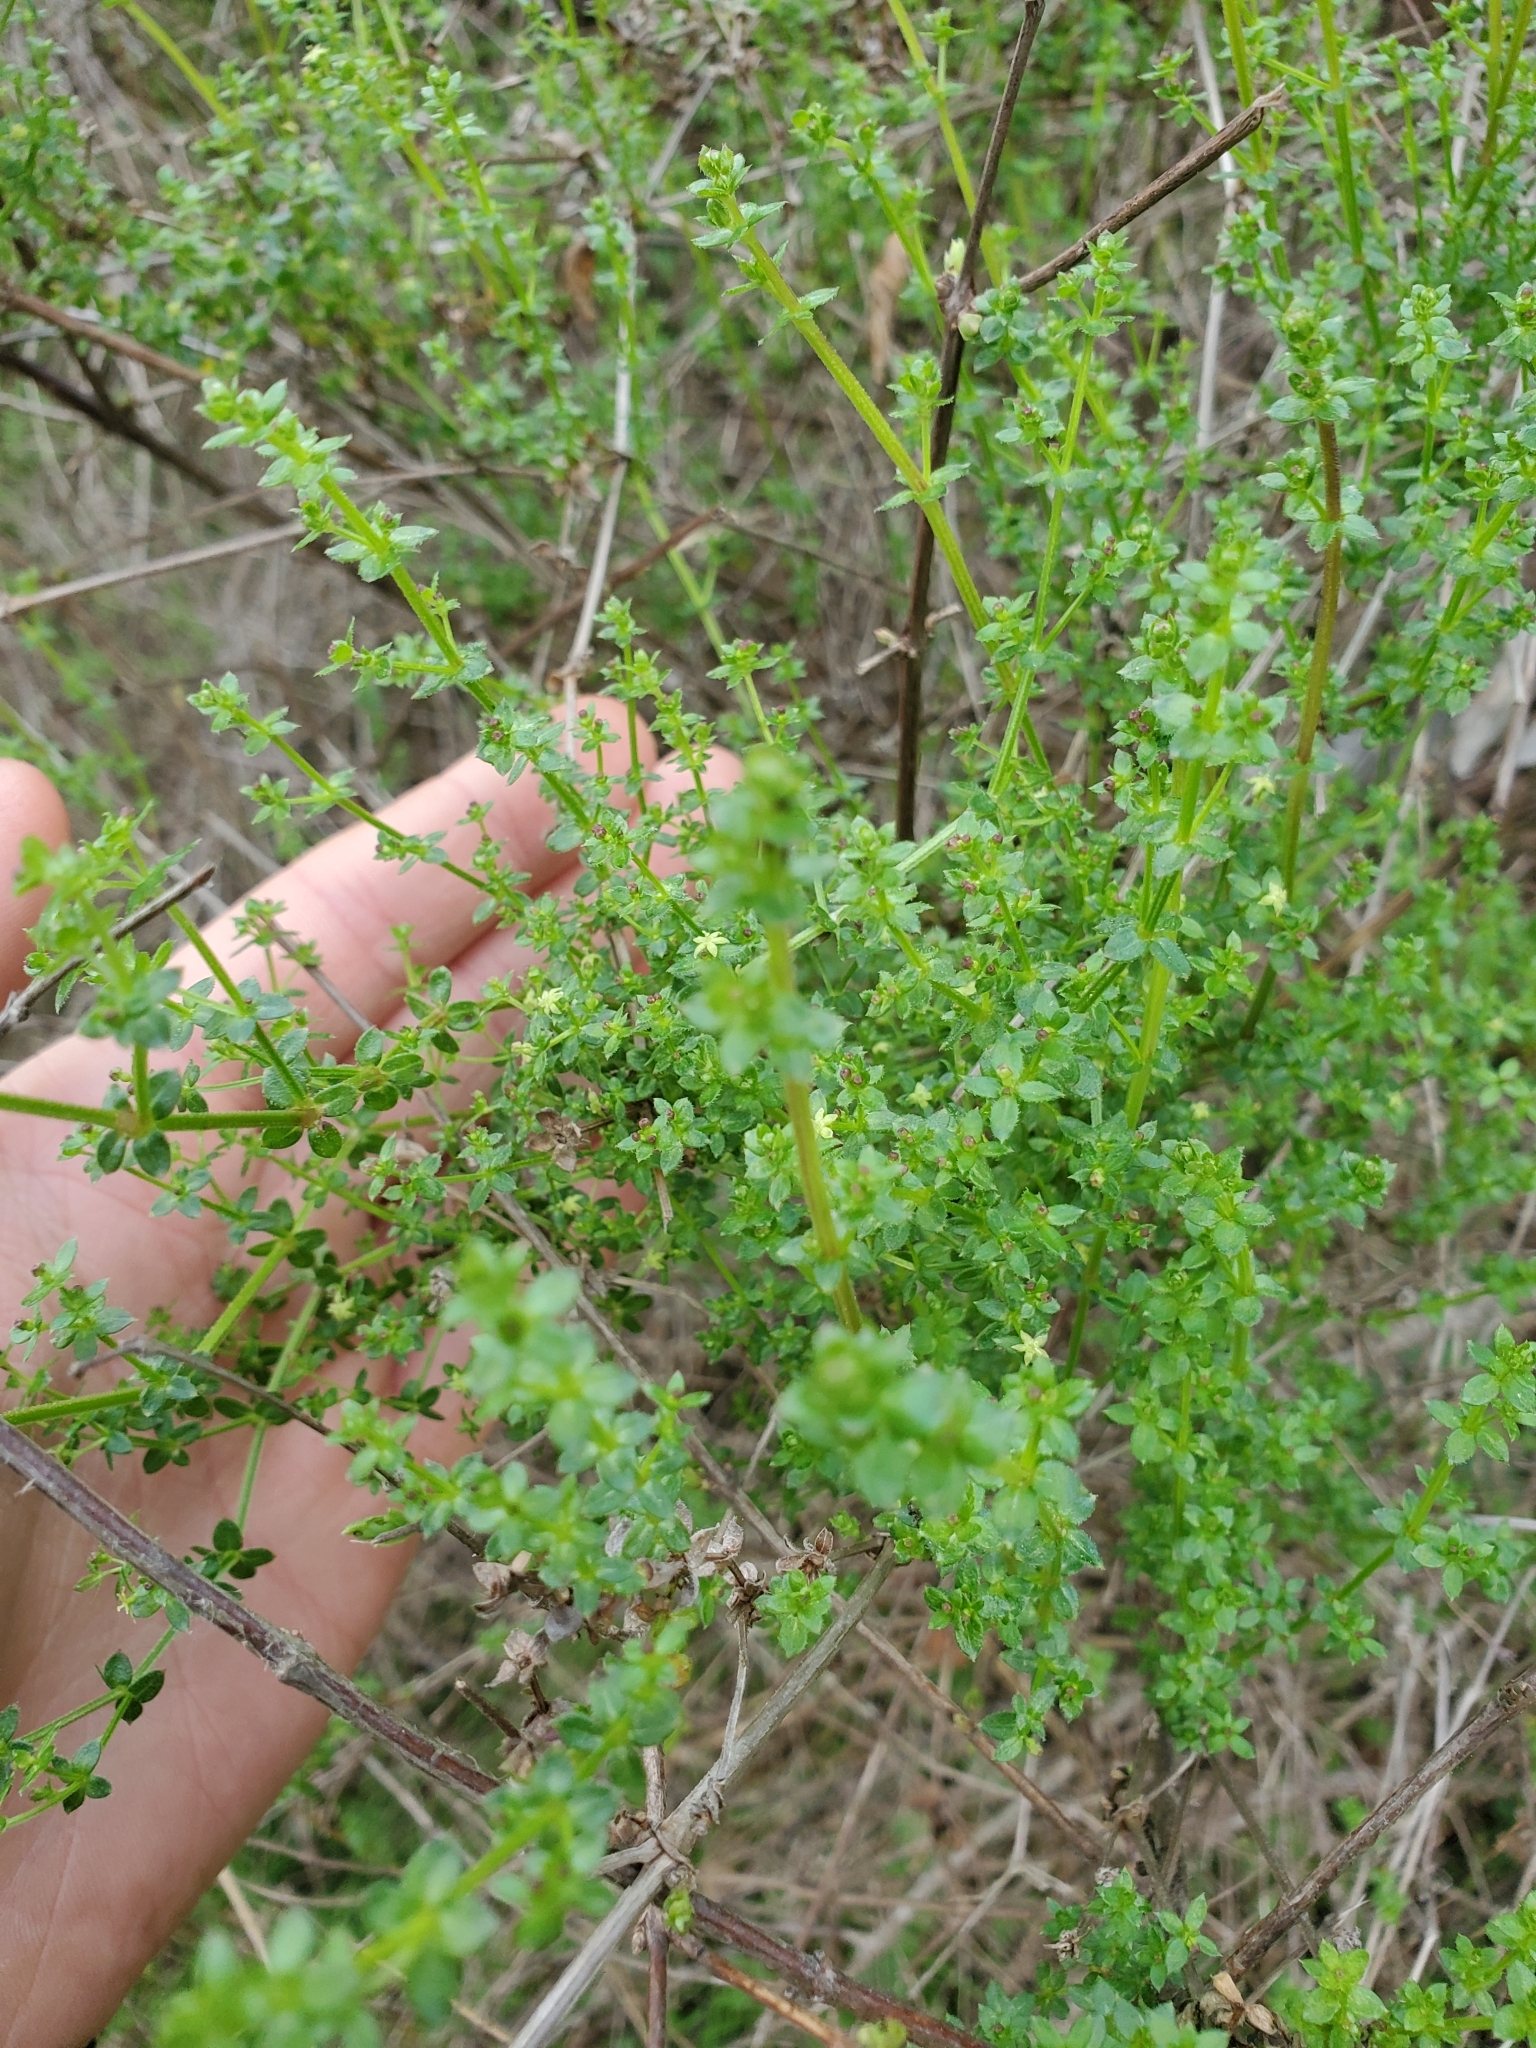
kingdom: Plantae
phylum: Tracheophyta
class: Magnoliopsida
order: Gentianales
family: Rubiaceae
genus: Galium
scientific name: Galium porrigens
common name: Climbing bedstraw
